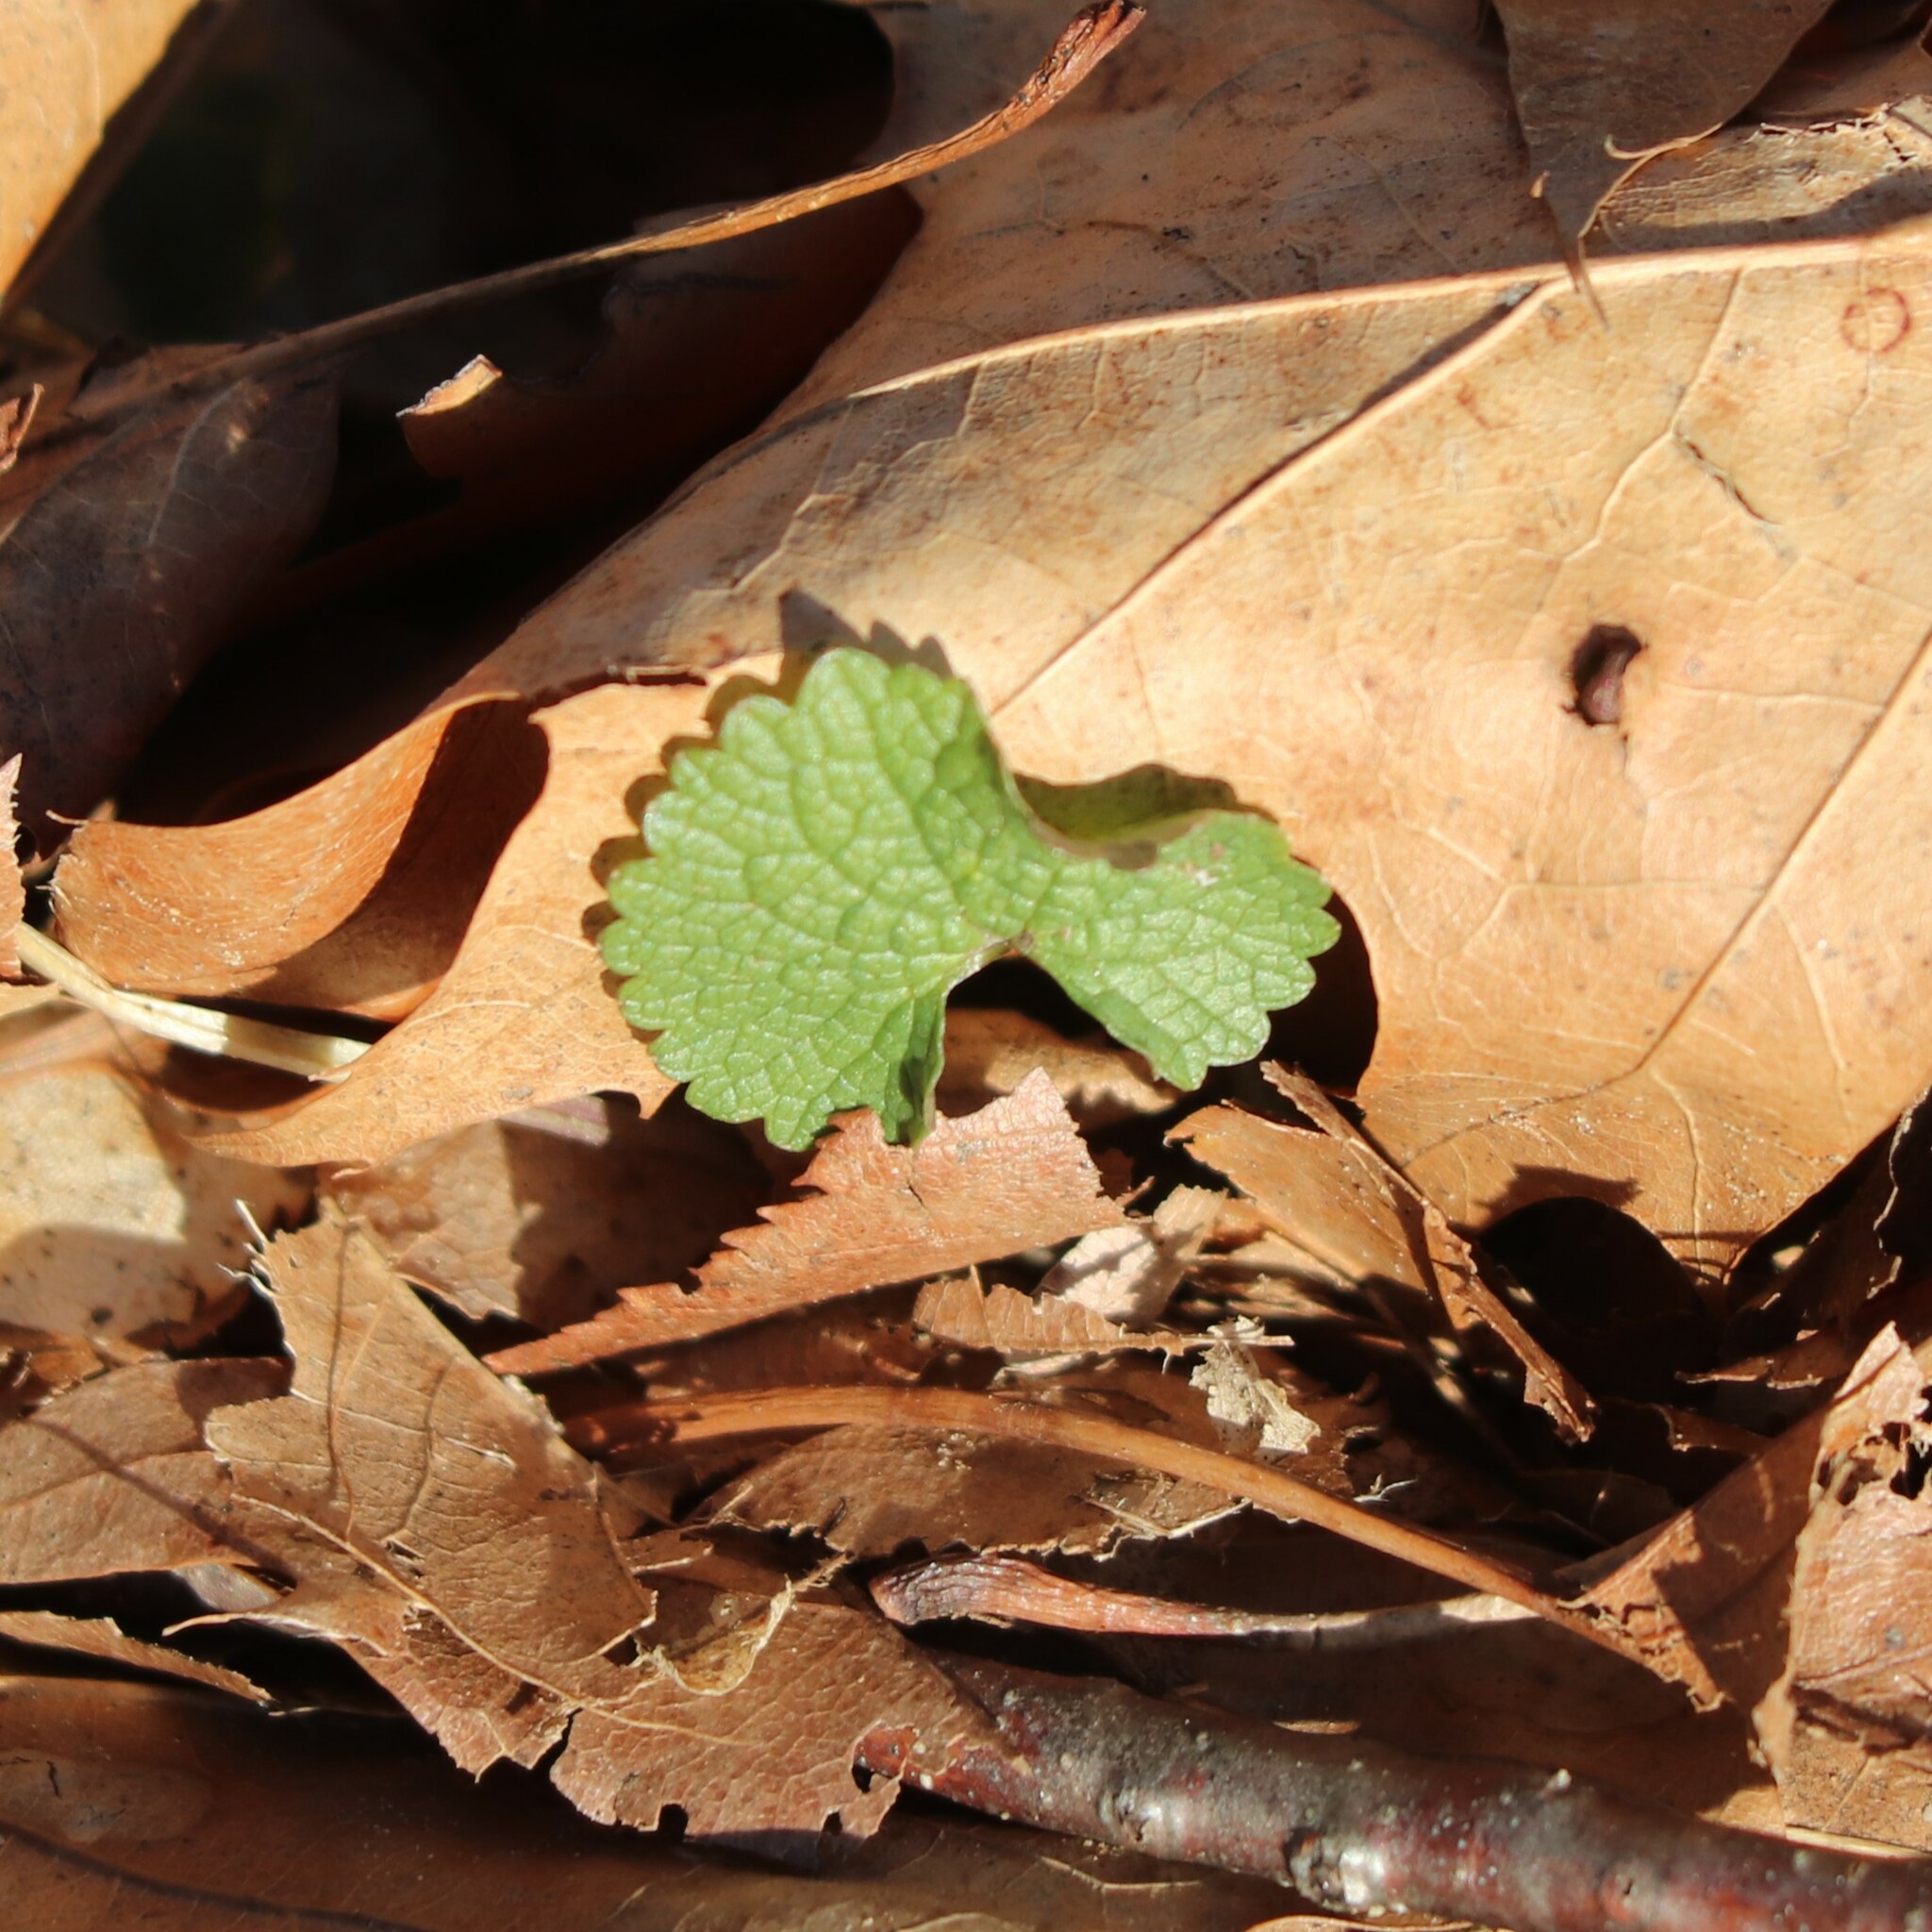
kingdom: Plantae
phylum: Tracheophyta
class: Magnoliopsida
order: Brassicales
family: Brassicaceae
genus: Alliaria
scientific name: Alliaria petiolata
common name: Garlic mustard
